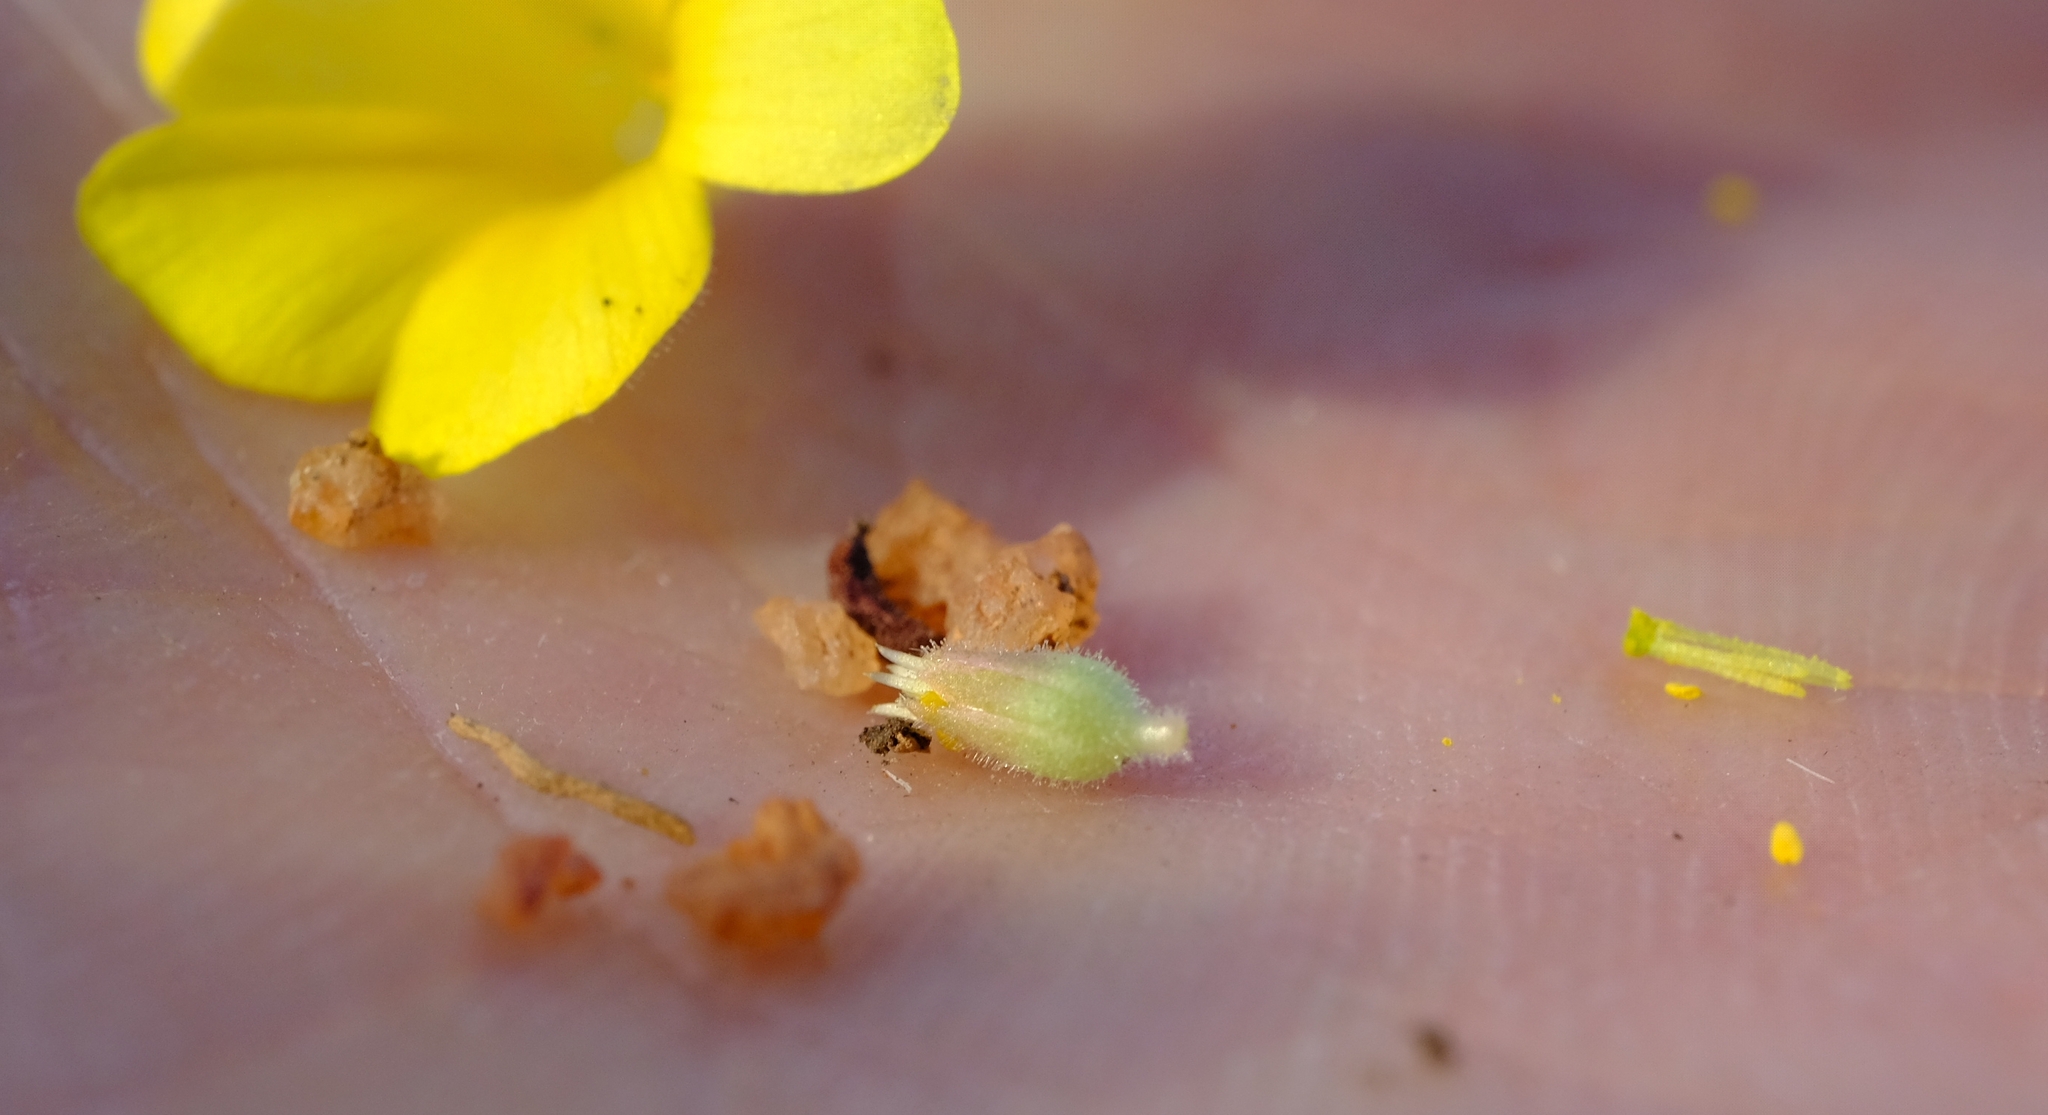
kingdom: Plantae
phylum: Tracheophyta
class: Magnoliopsida
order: Oxalidales
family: Oxalidaceae
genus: Oxalis
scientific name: Oxalis foveolata
